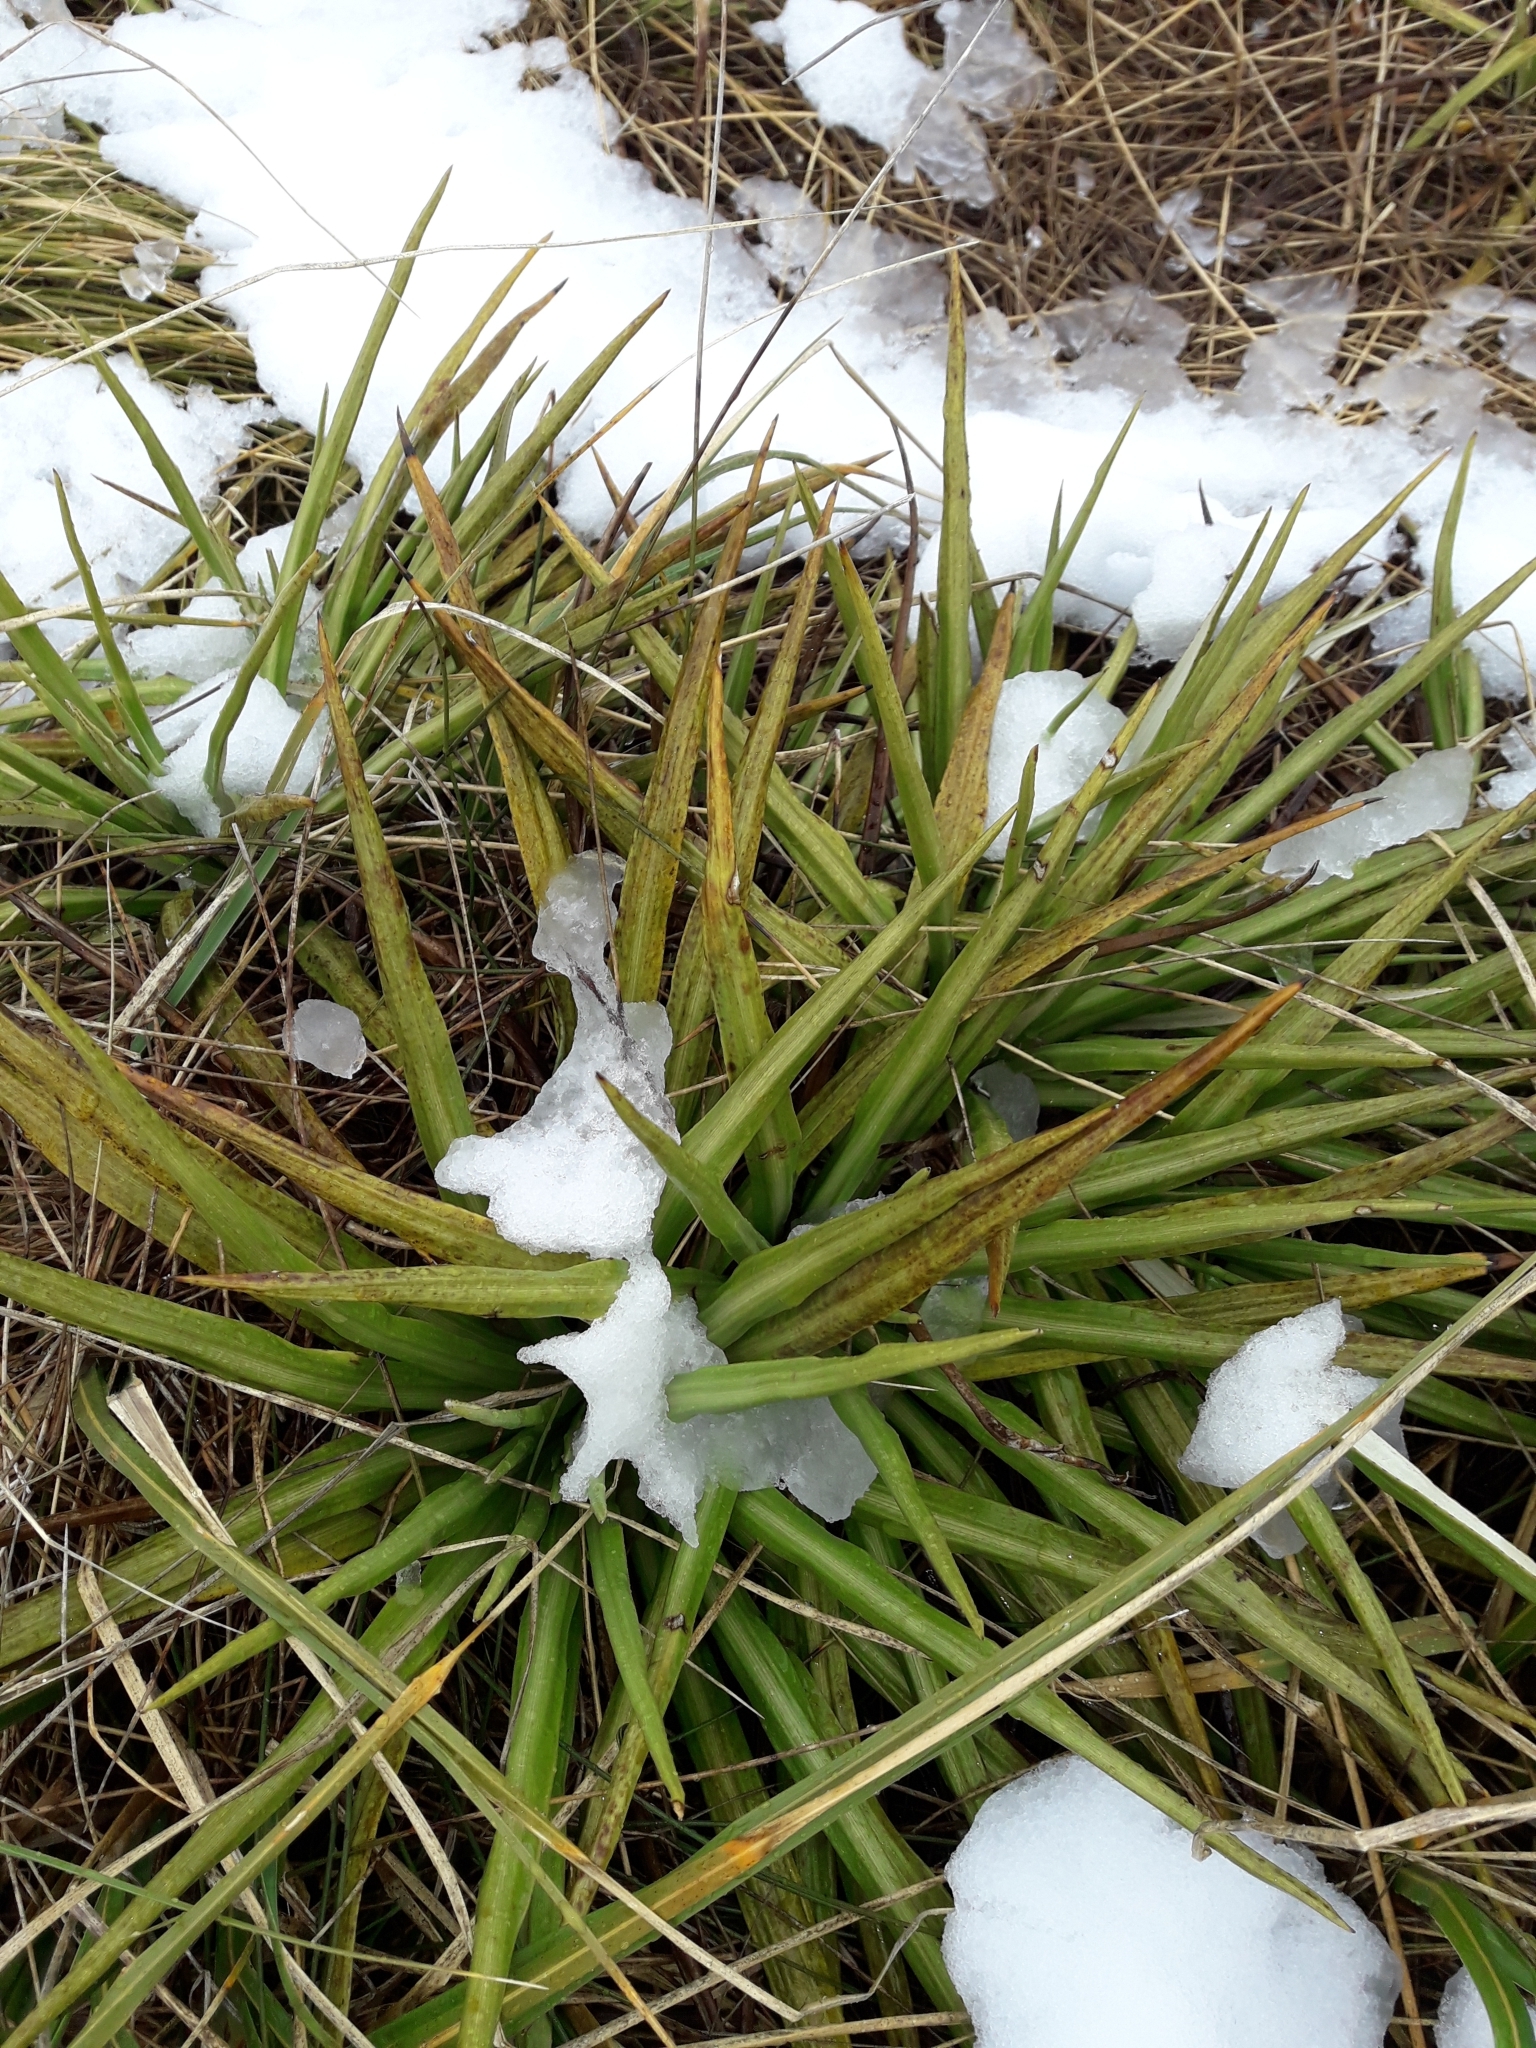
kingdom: Plantae
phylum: Tracheophyta
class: Magnoliopsida
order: Asterales
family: Asteraceae
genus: Celmisia
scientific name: Celmisia petriei
